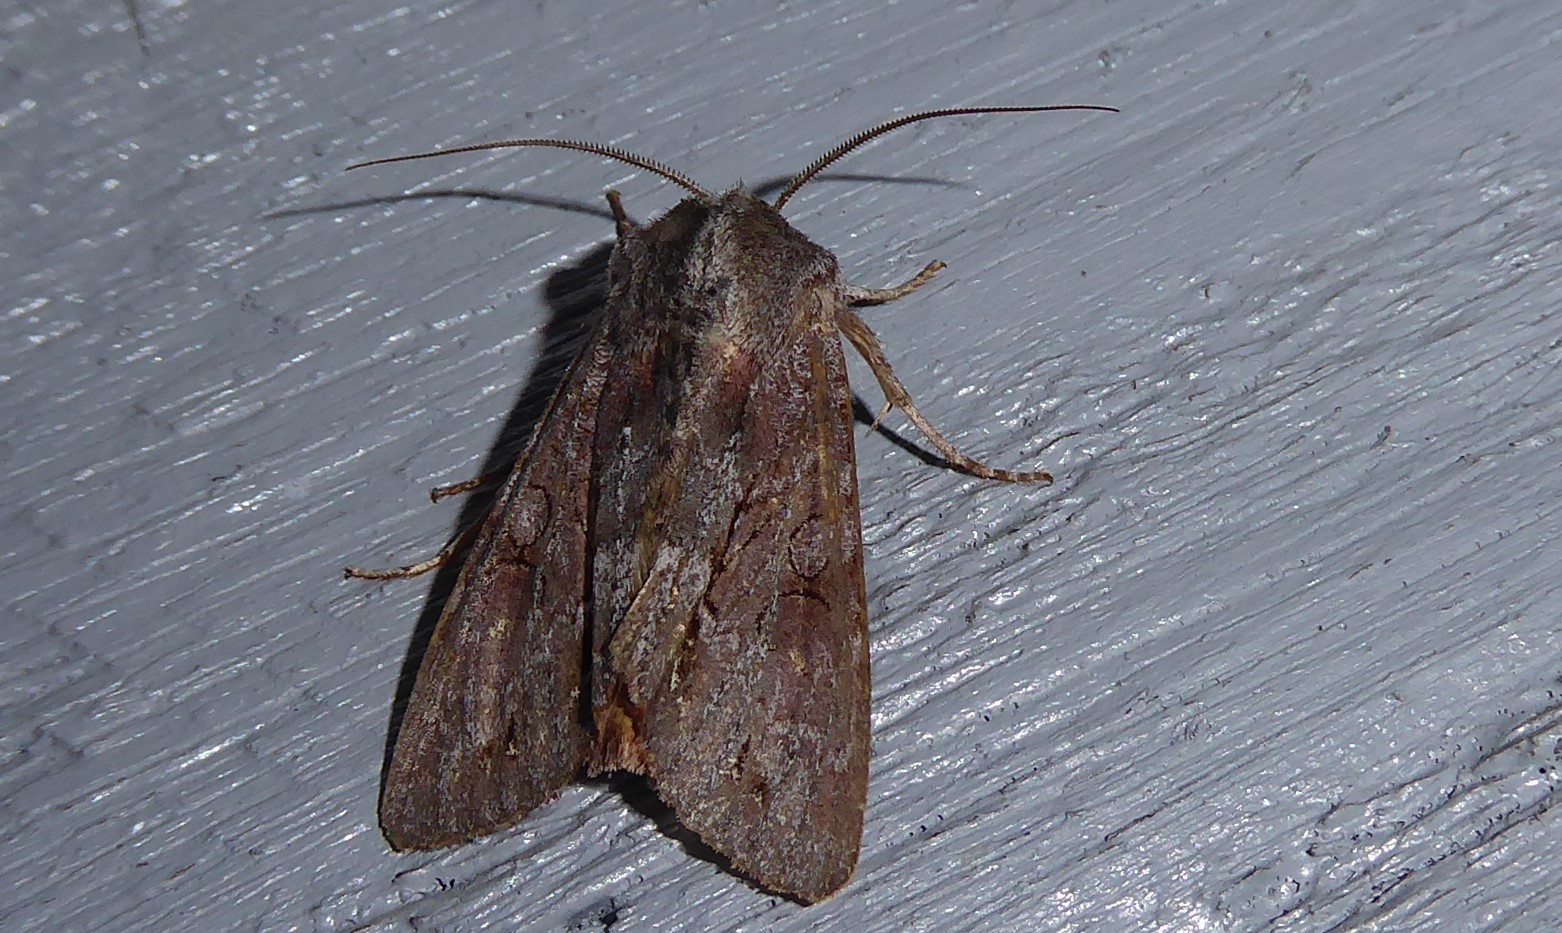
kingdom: Animalia
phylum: Arthropoda
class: Insecta
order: Lepidoptera
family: Noctuidae
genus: Ichneutica
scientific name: Ichneutica
